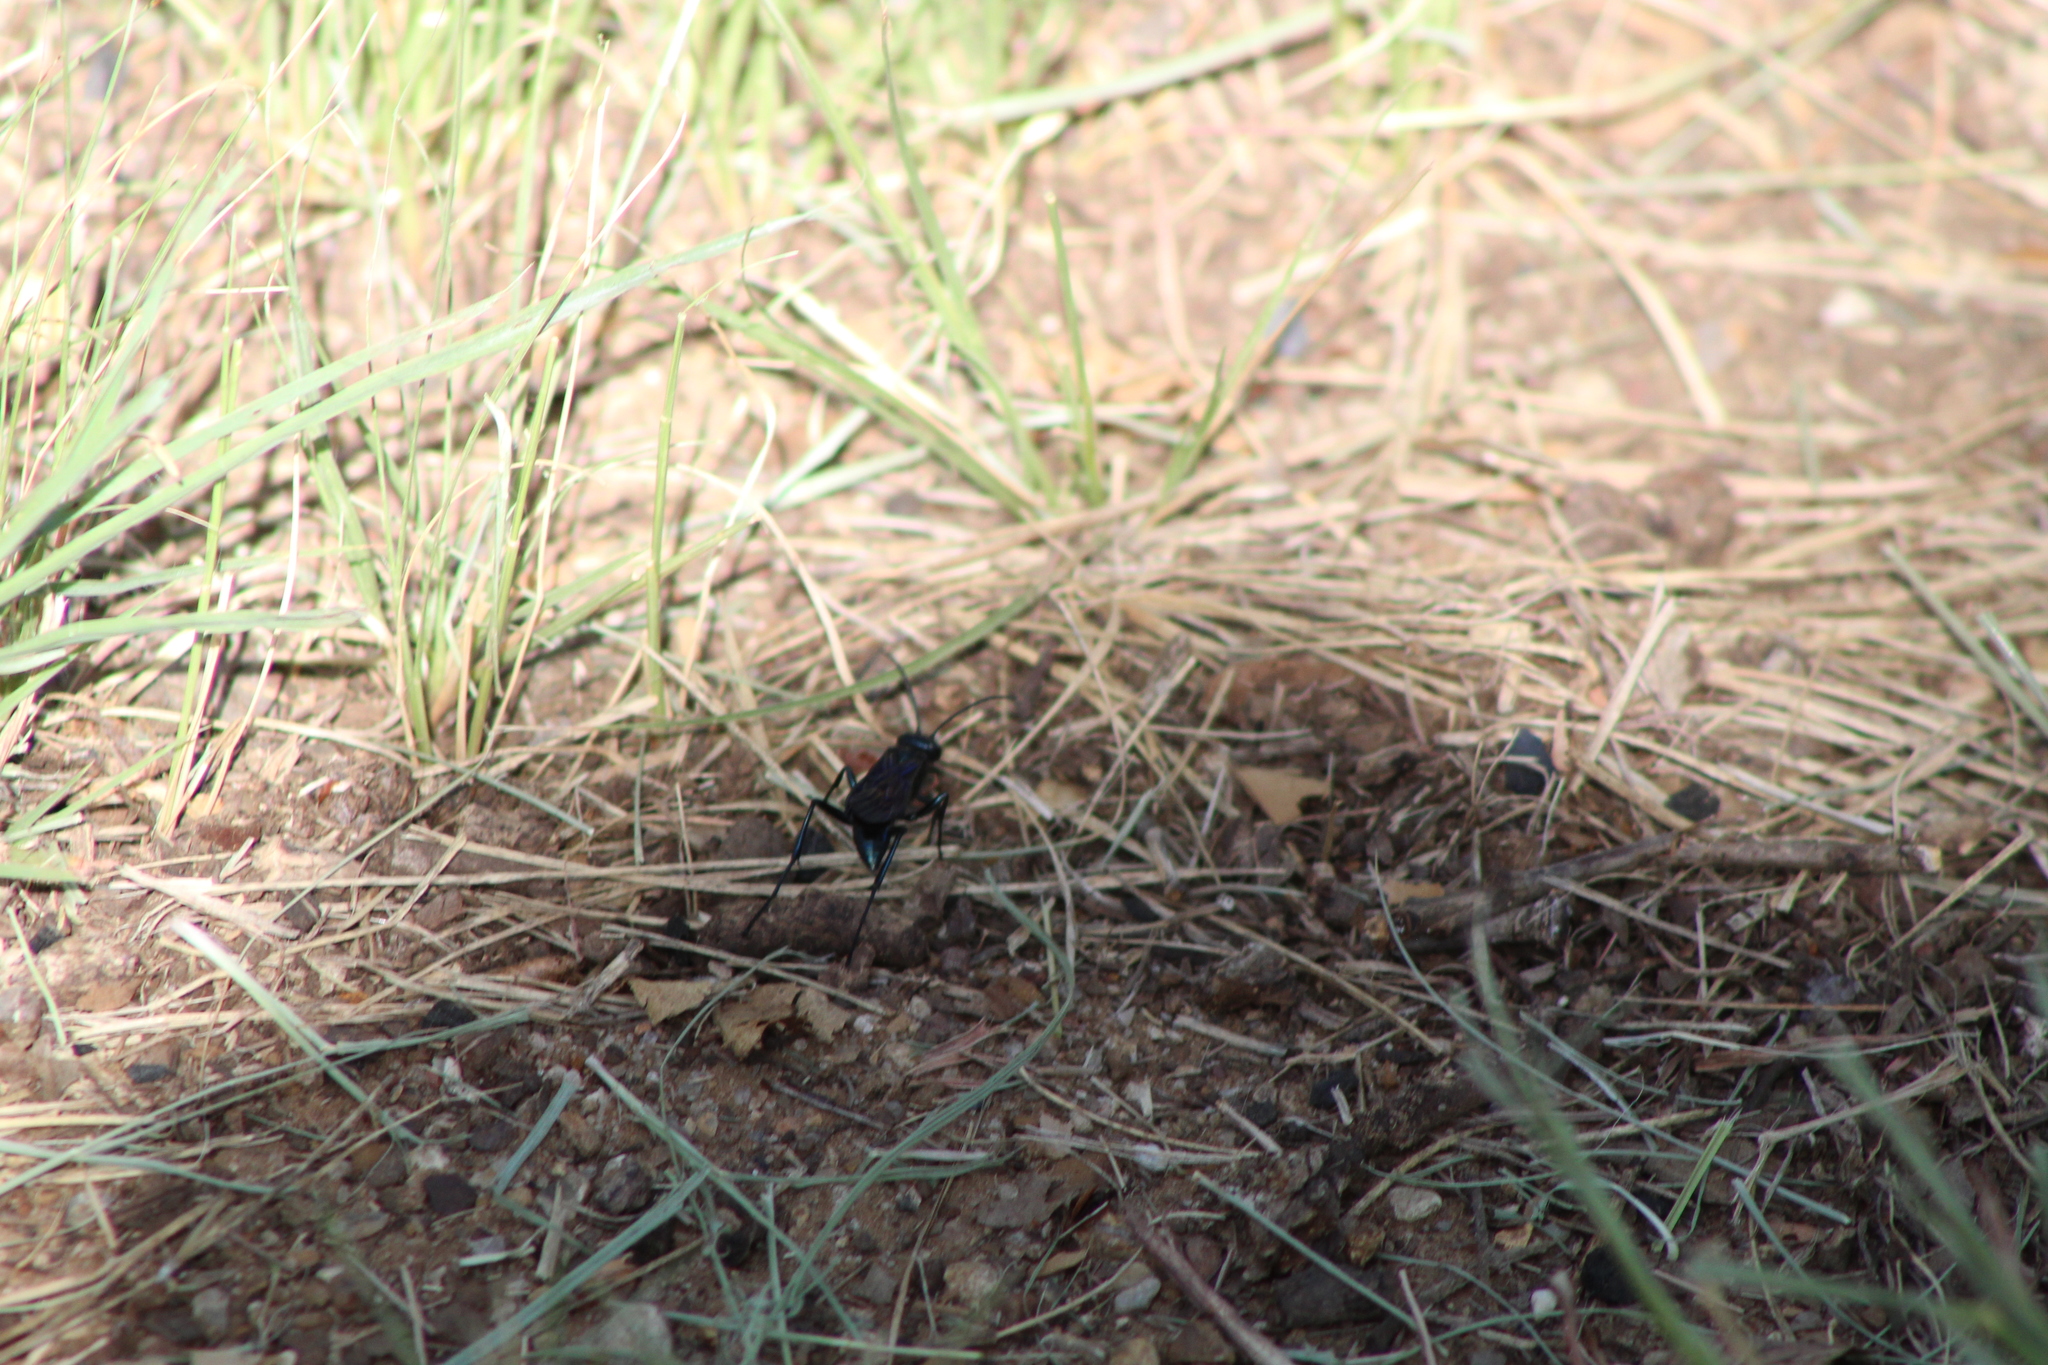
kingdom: Animalia
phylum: Arthropoda
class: Insecta
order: Hymenoptera
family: Sphecidae
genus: Chalybion
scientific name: Chalybion californicum
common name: Mud dauber
